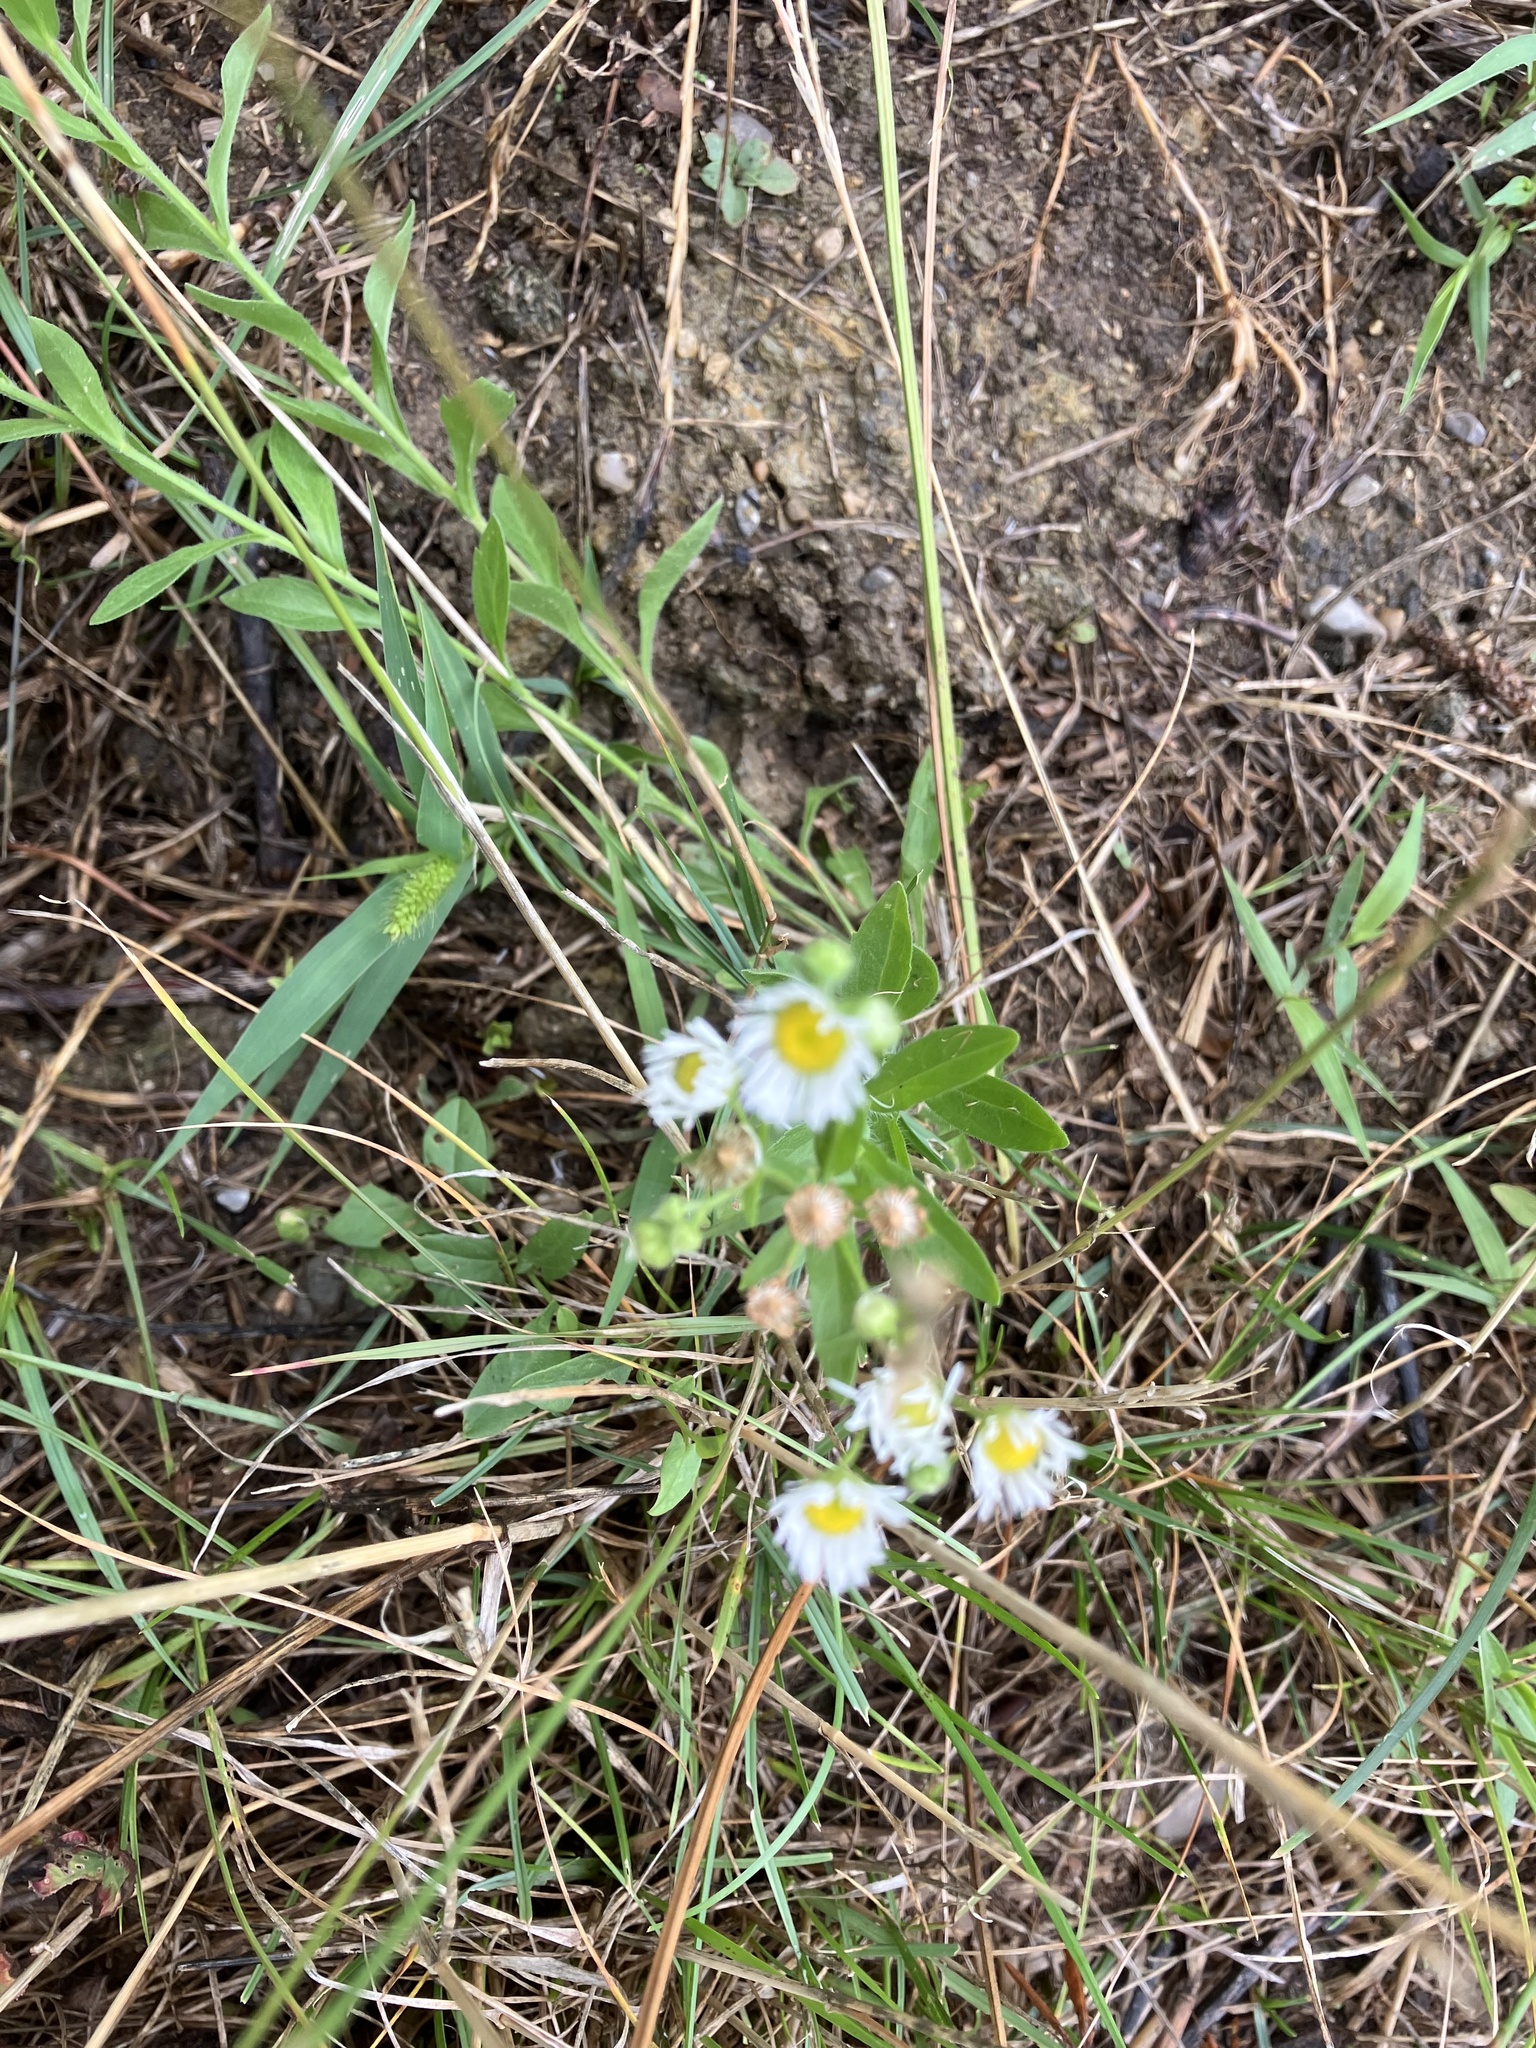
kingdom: Plantae
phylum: Tracheophyta
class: Magnoliopsida
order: Asterales
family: Asteraceae
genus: Erigeron
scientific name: Erigeron annuus
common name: Tall fleabane
